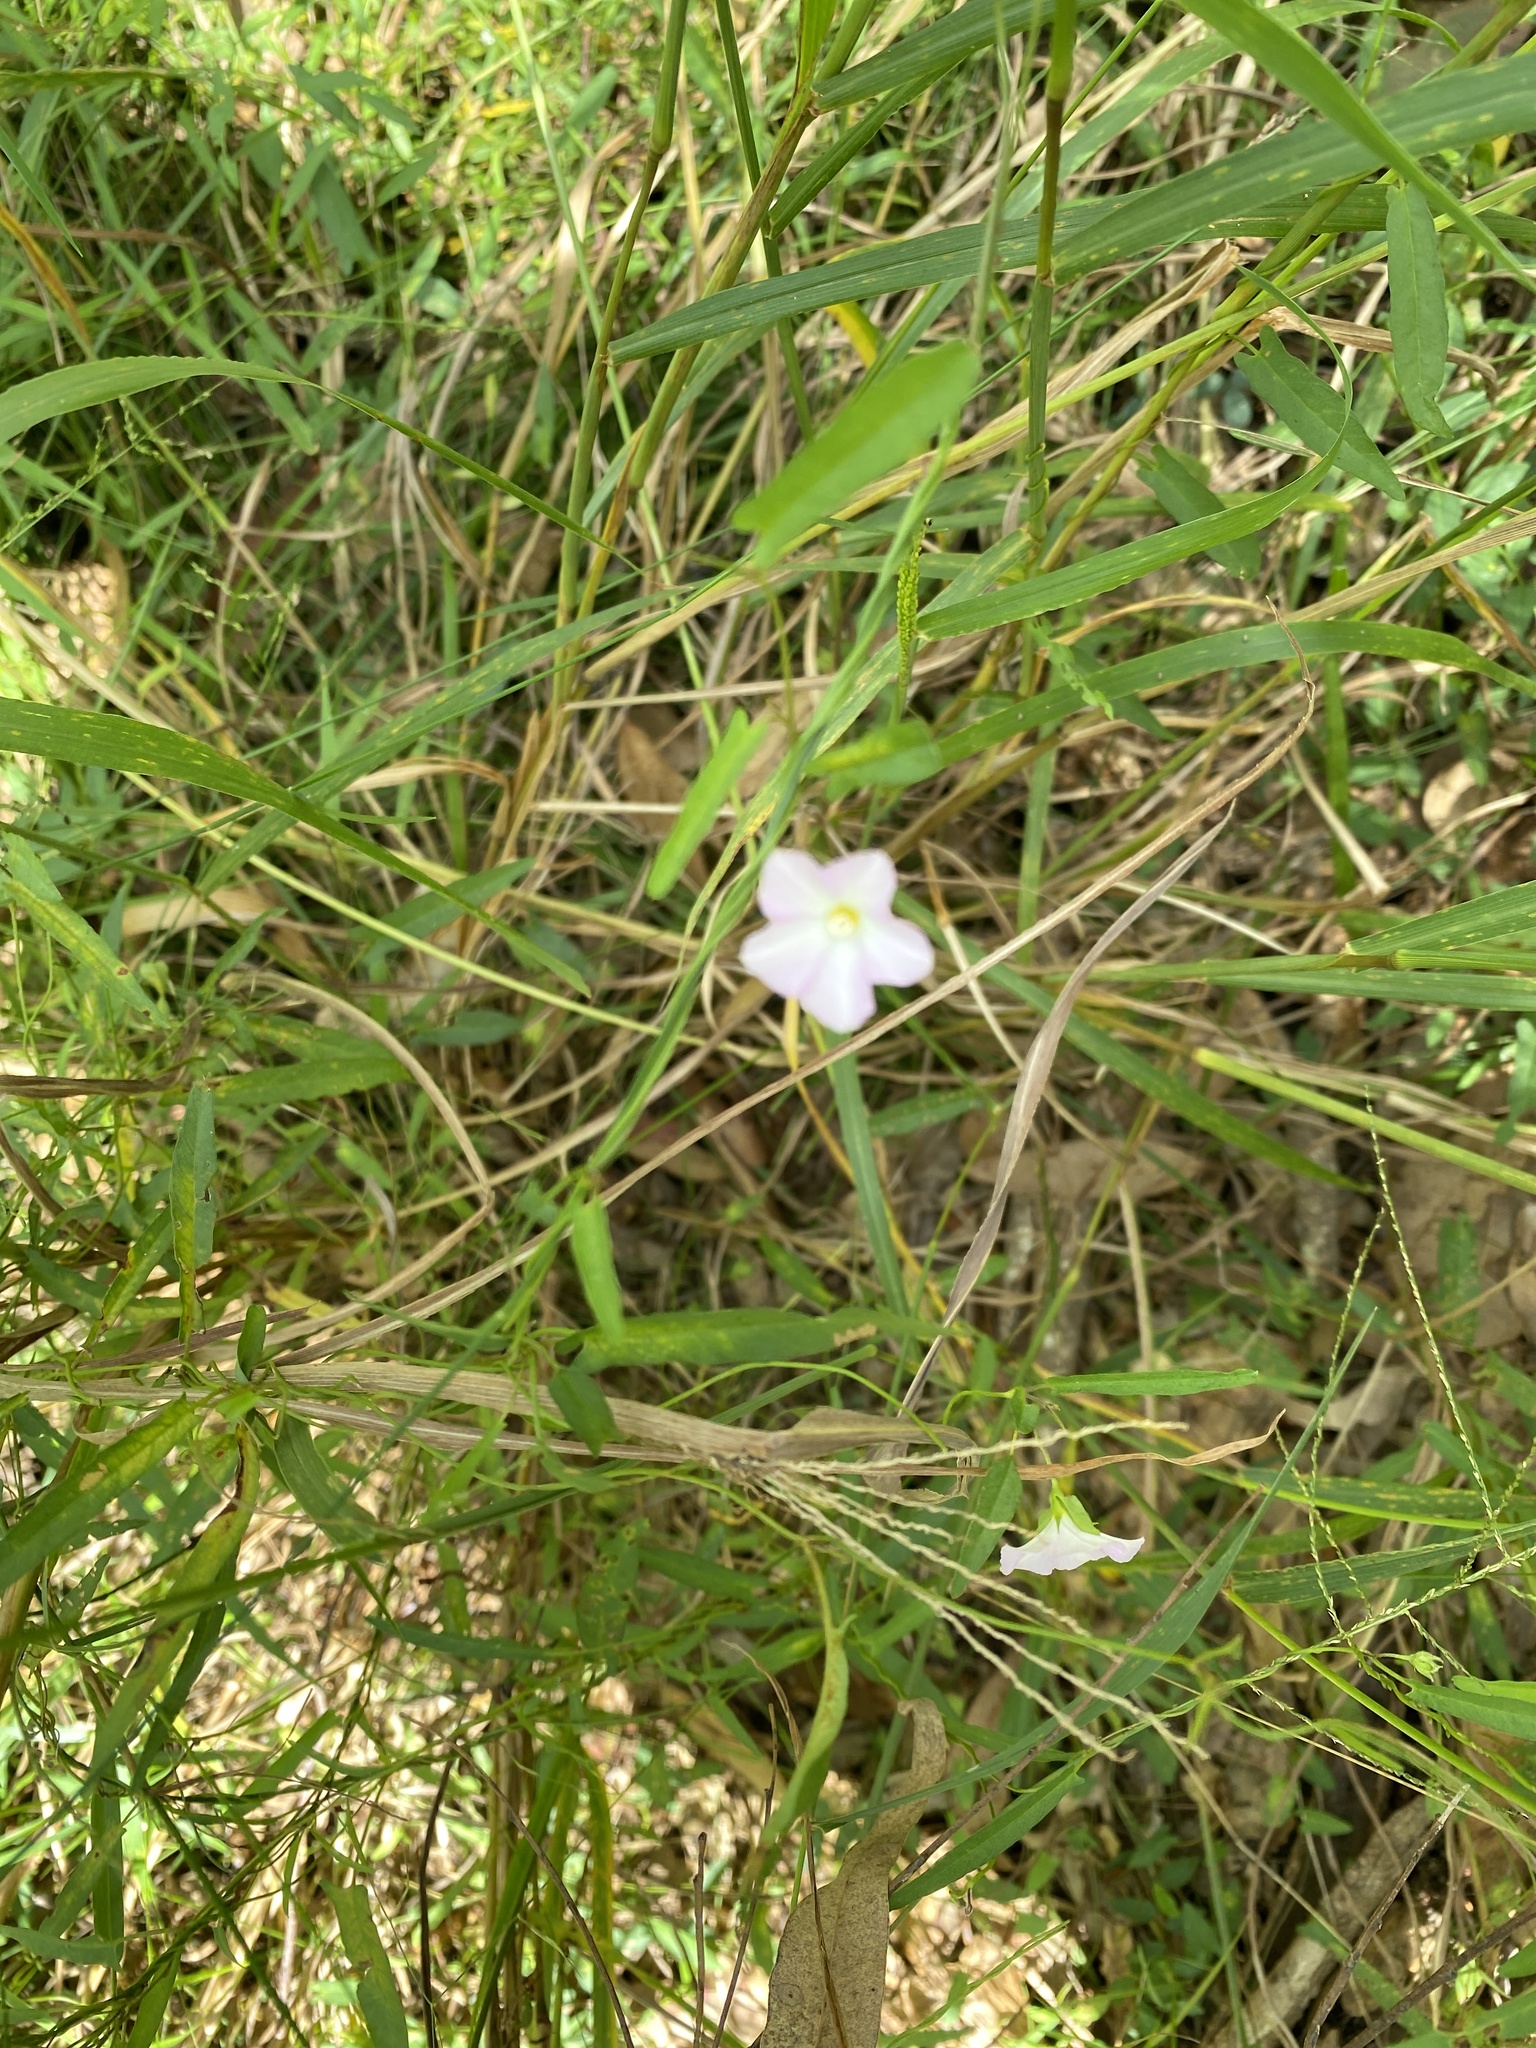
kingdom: Plantae
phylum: Tracheophyta
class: Magnoliopsida
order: Solanales
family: Convolvulaceae
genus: Polymeria
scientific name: Polymeria calycina
